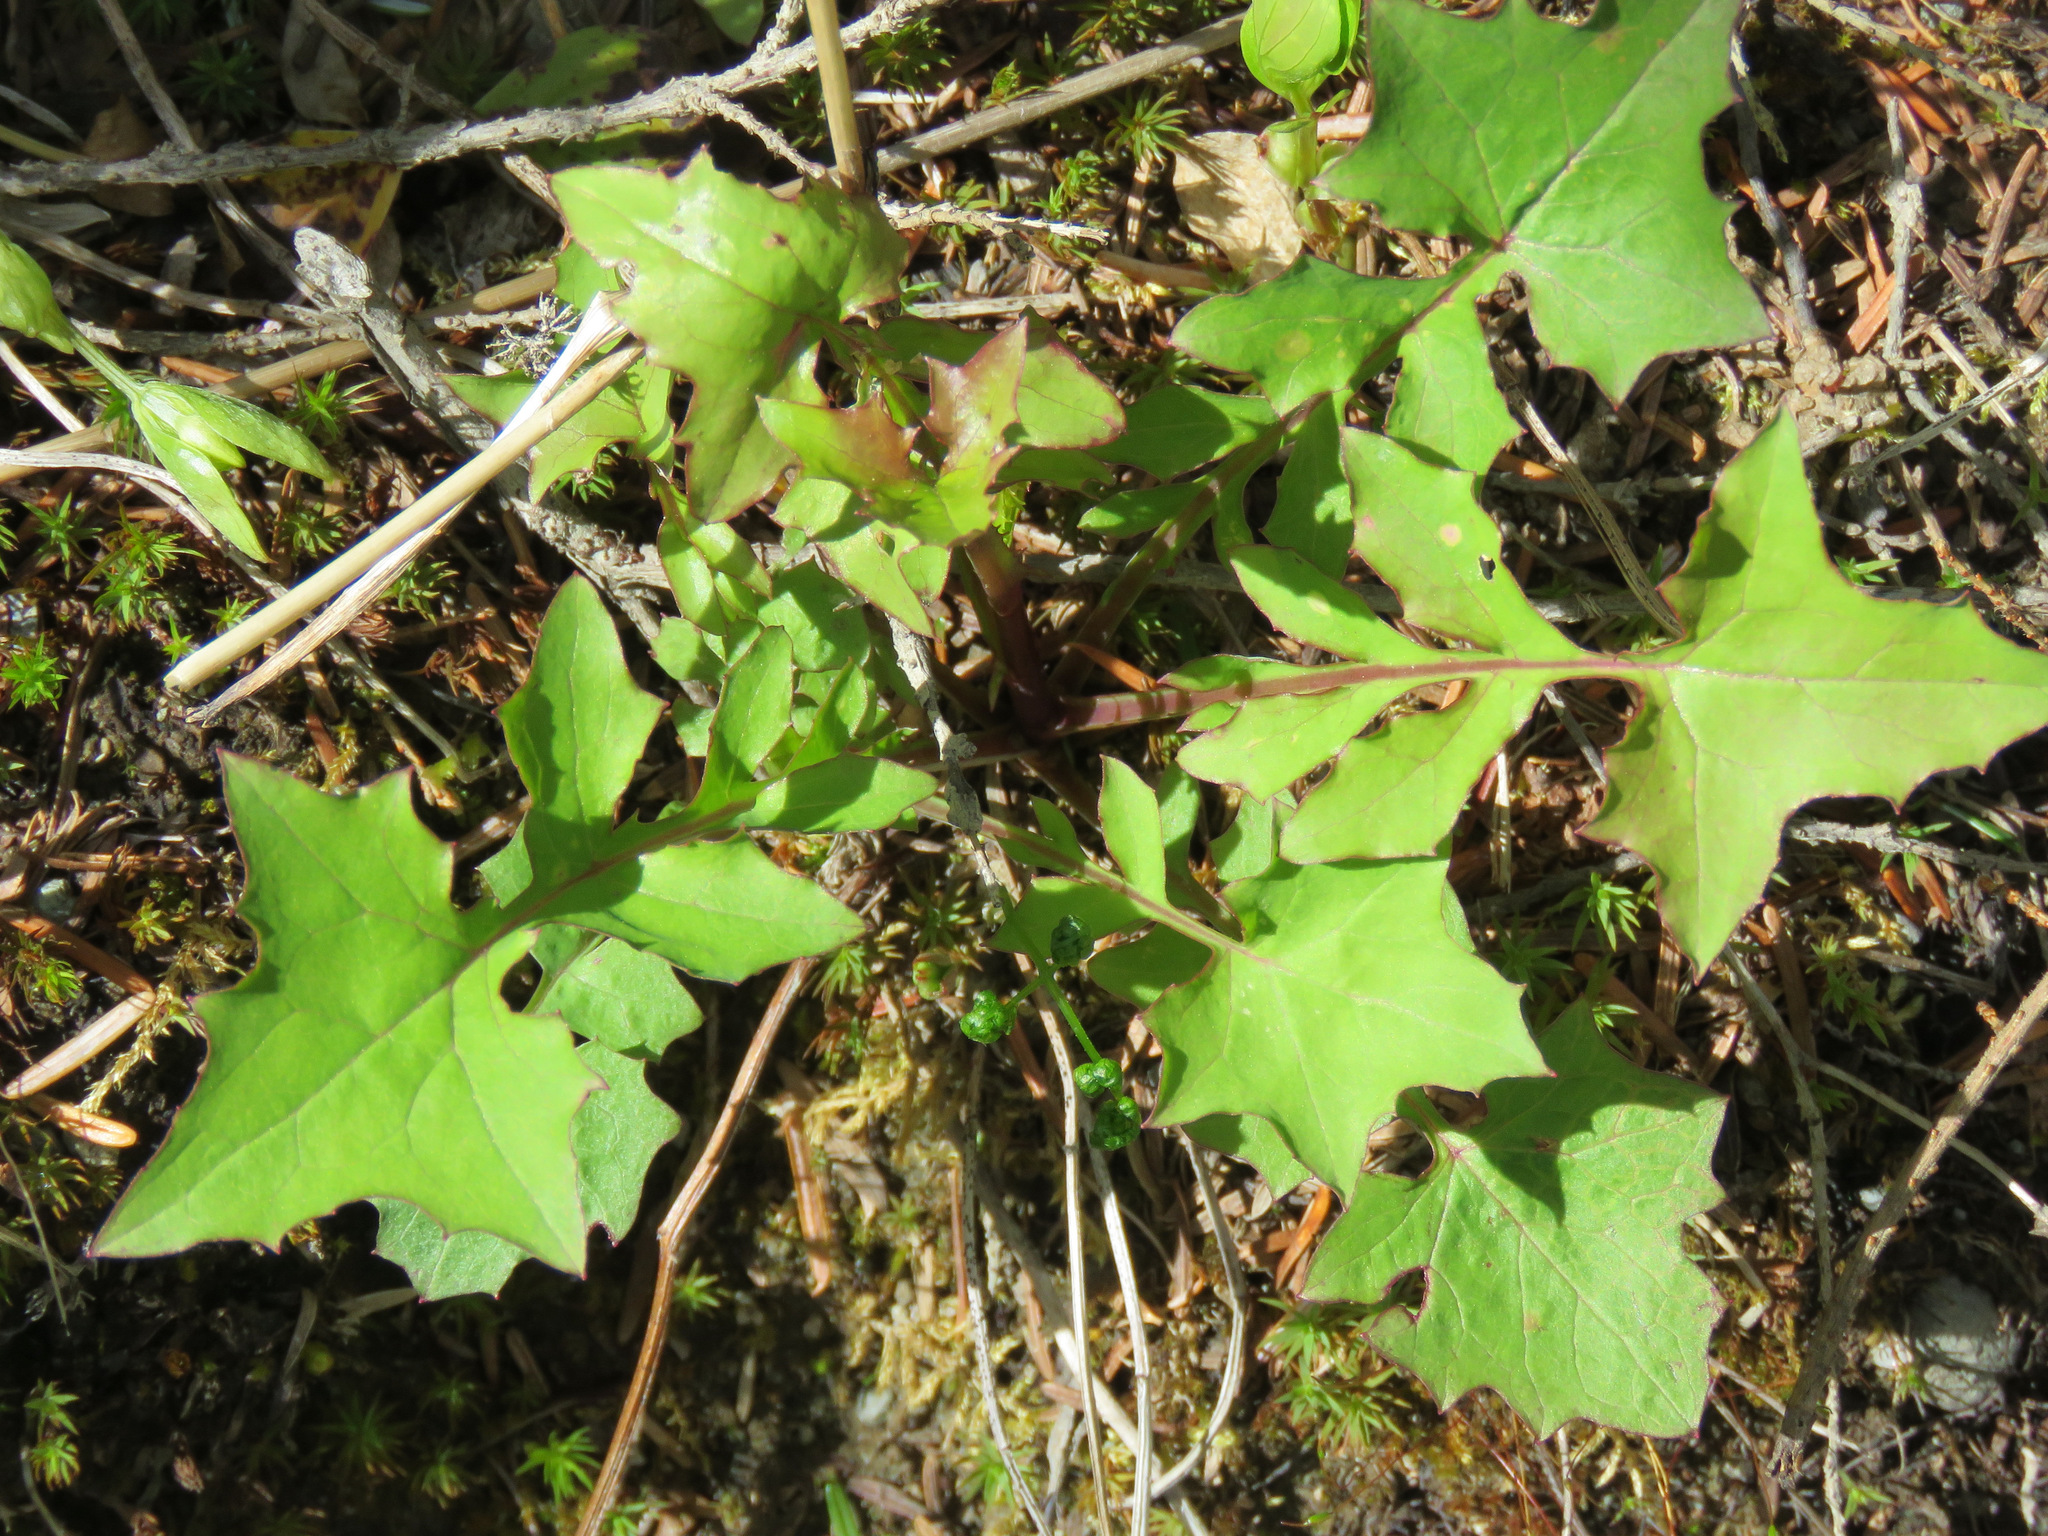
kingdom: Plantae
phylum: Tracheophyta
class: Magnoliopsida
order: Asterales
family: Asteraceae
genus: Mycelis
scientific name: Mycelis muralis
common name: Wall lettuce
